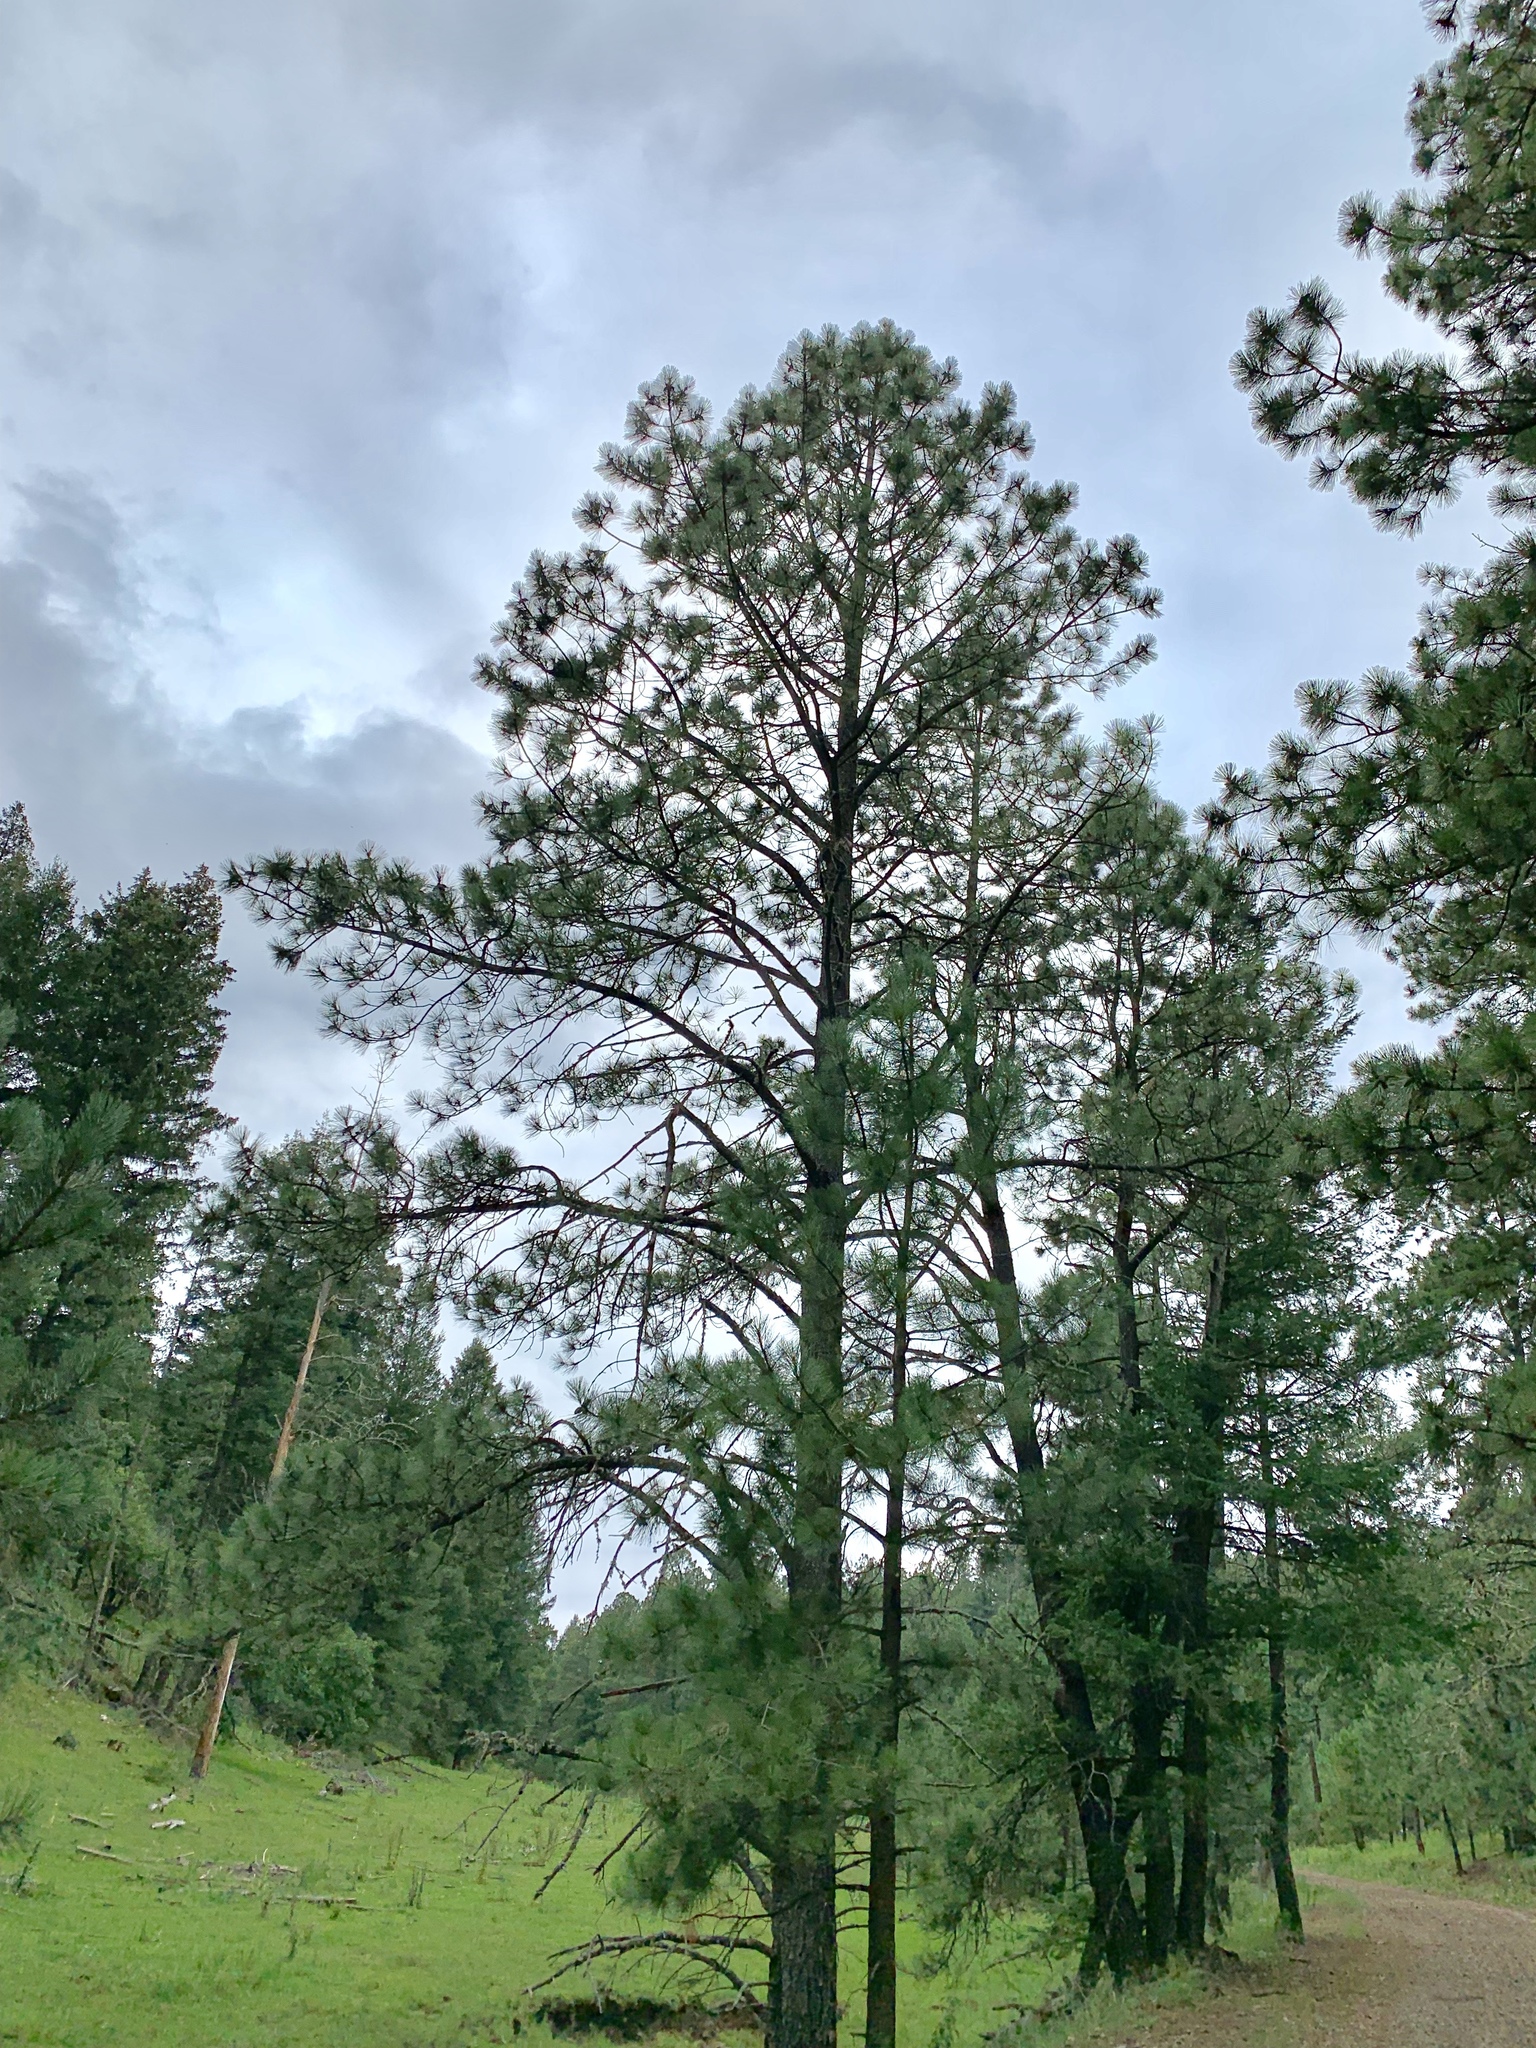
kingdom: Plantae
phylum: Tracheophyta
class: Pinopsida
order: Pinales
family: Pinaceae
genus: Pinus
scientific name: Pinus ponderosa
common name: Western yellow-pine
